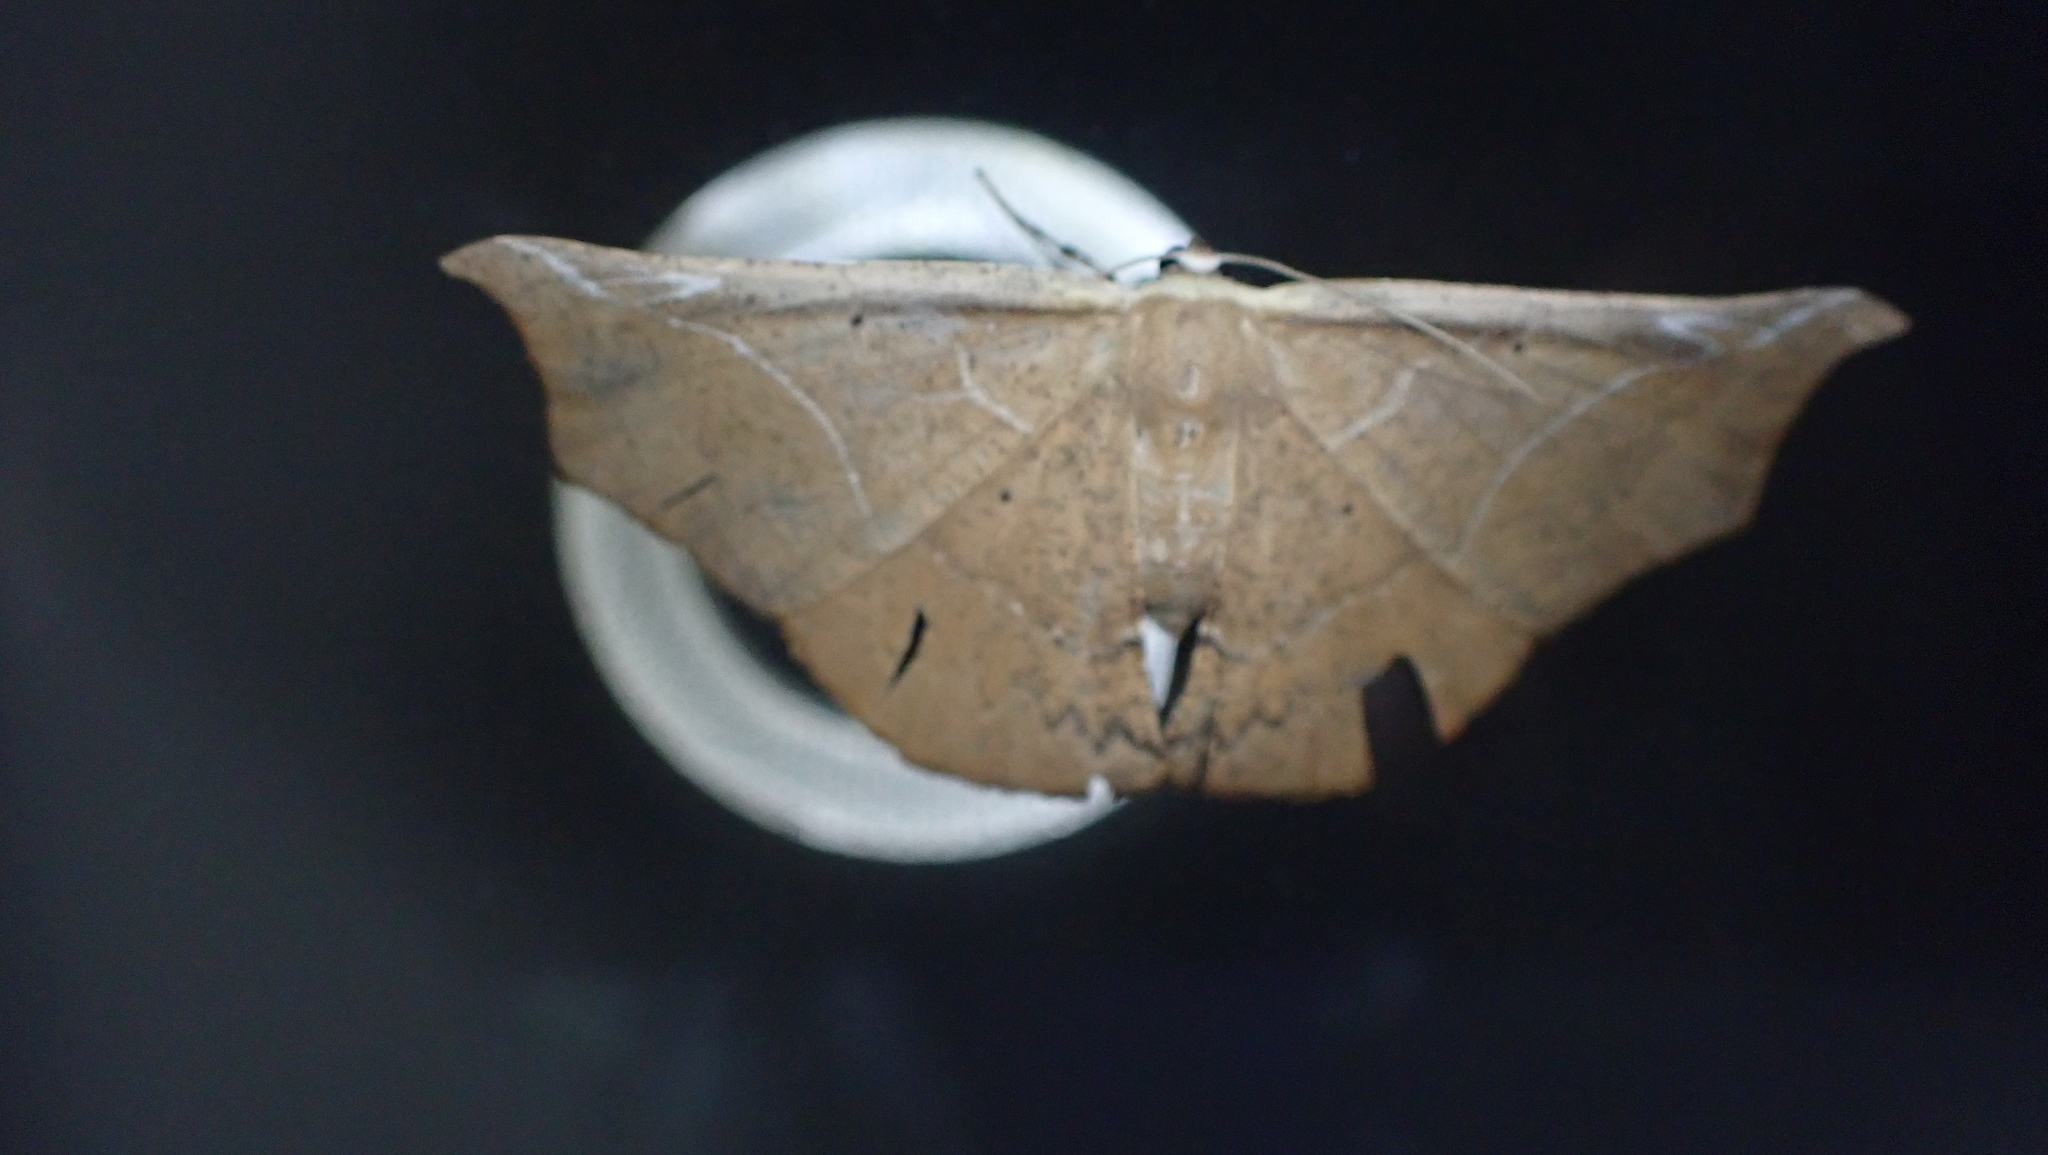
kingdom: Animalia
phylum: Arthropoda
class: Insecta
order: Lepidoptera
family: Geometridae
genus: Polla
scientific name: Polla hemeraria
